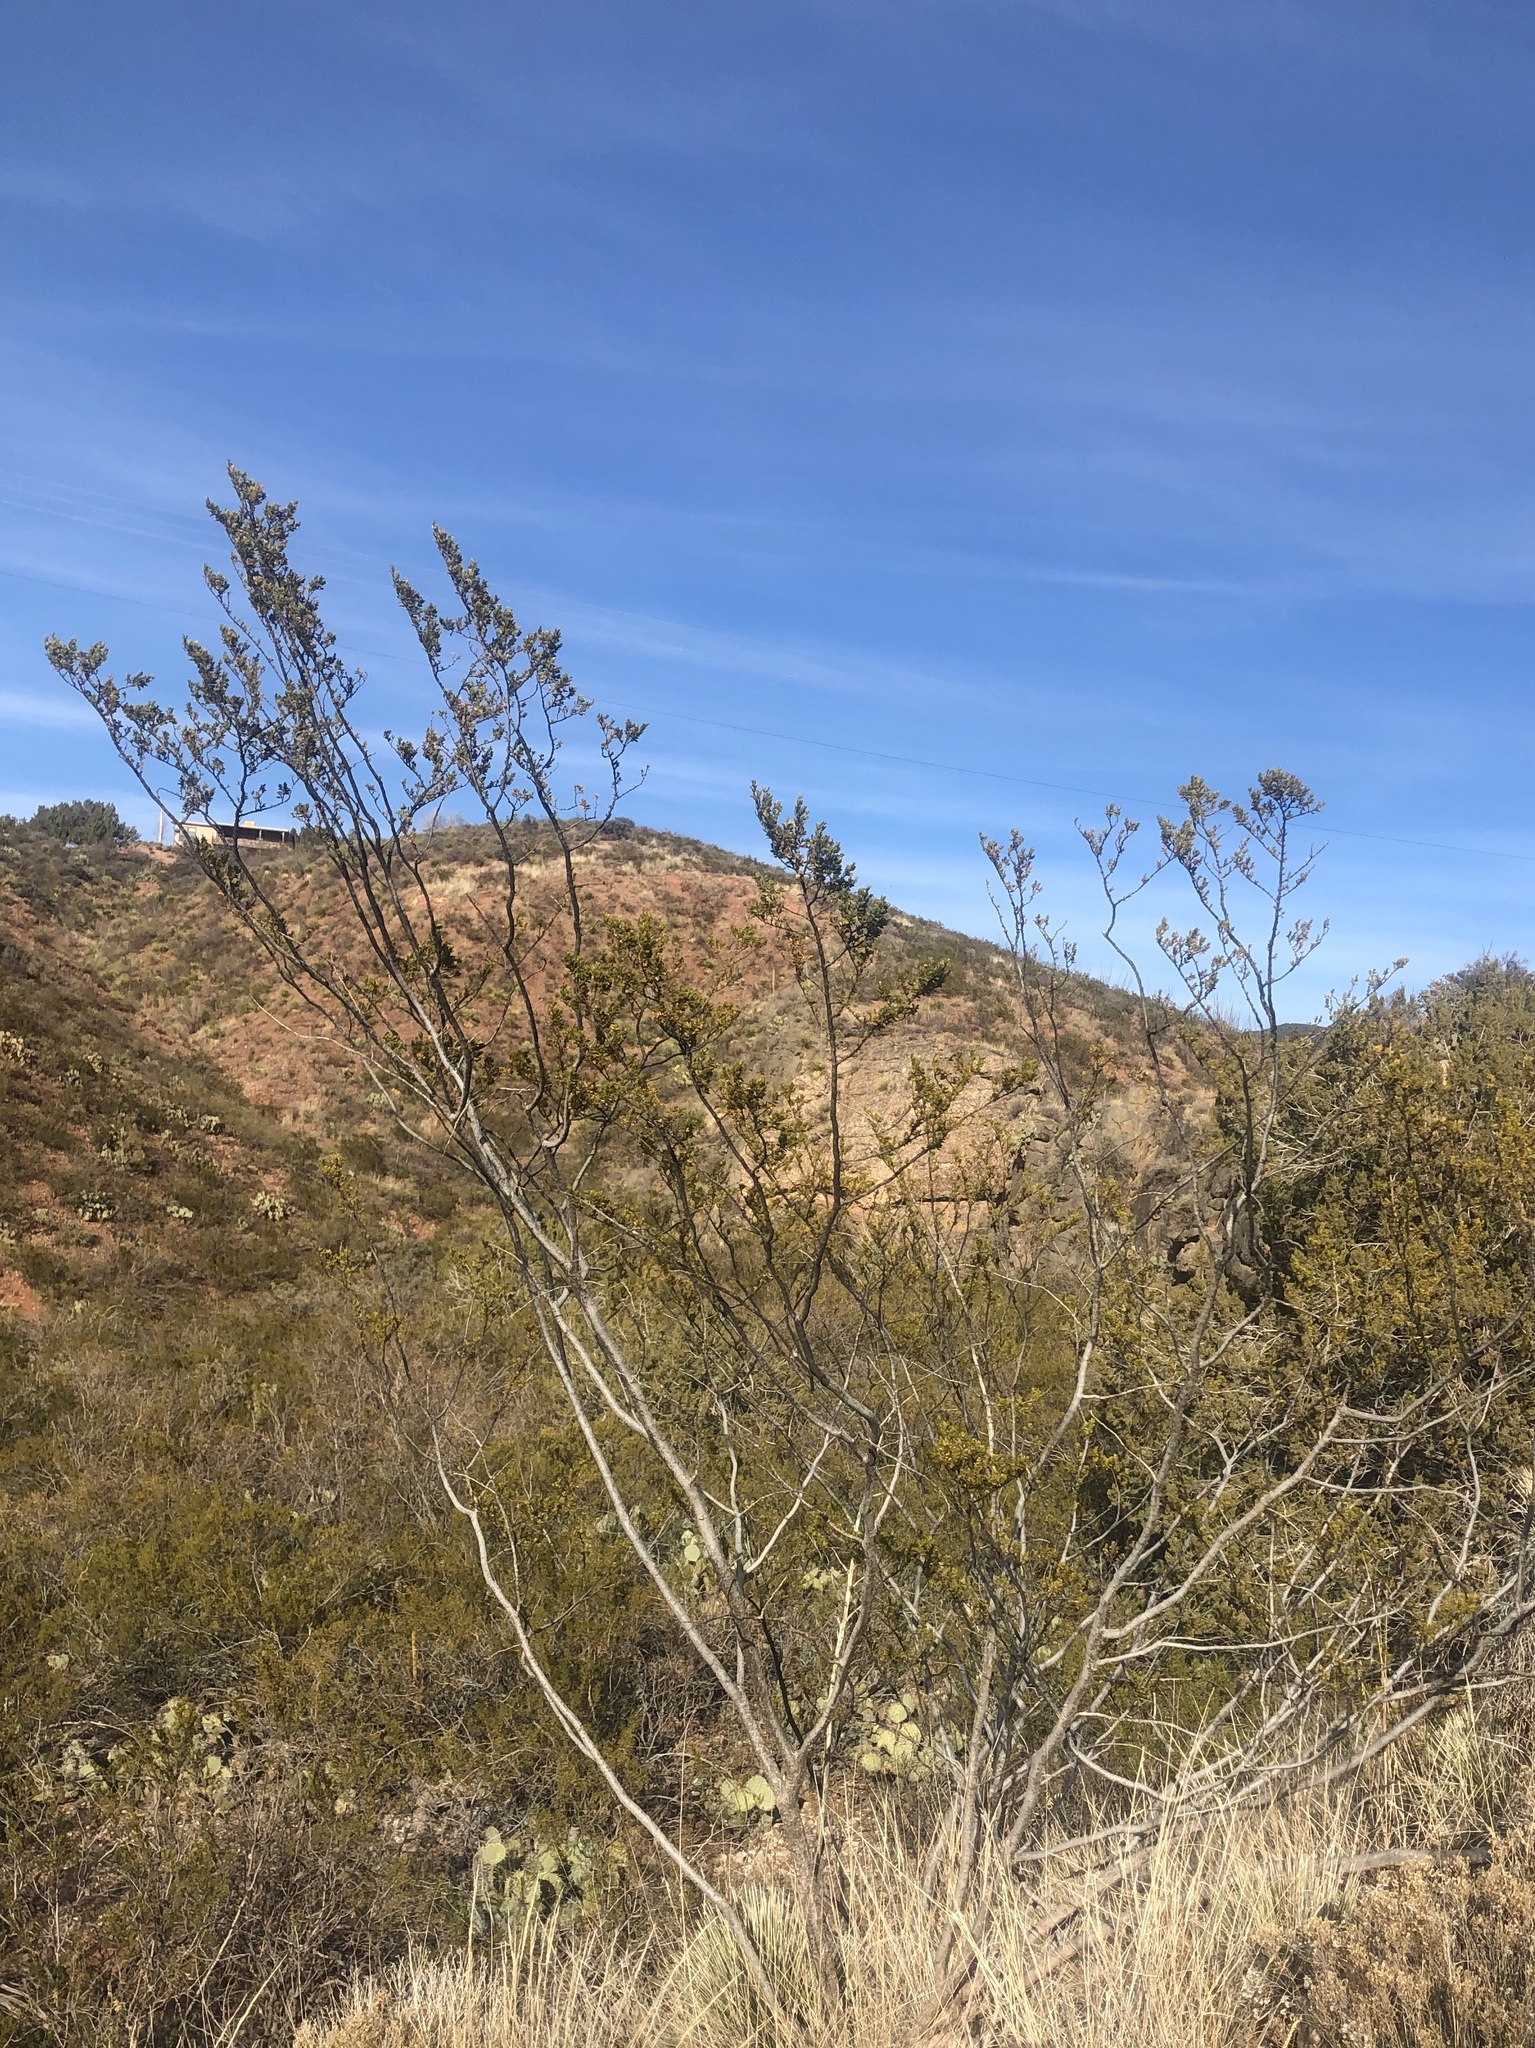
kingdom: Plantae
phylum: Tracheophyta
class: Magnoliopsida
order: Zygophyllales
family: Zygophyllaceae
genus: Larrea
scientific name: Larrea tridentata
